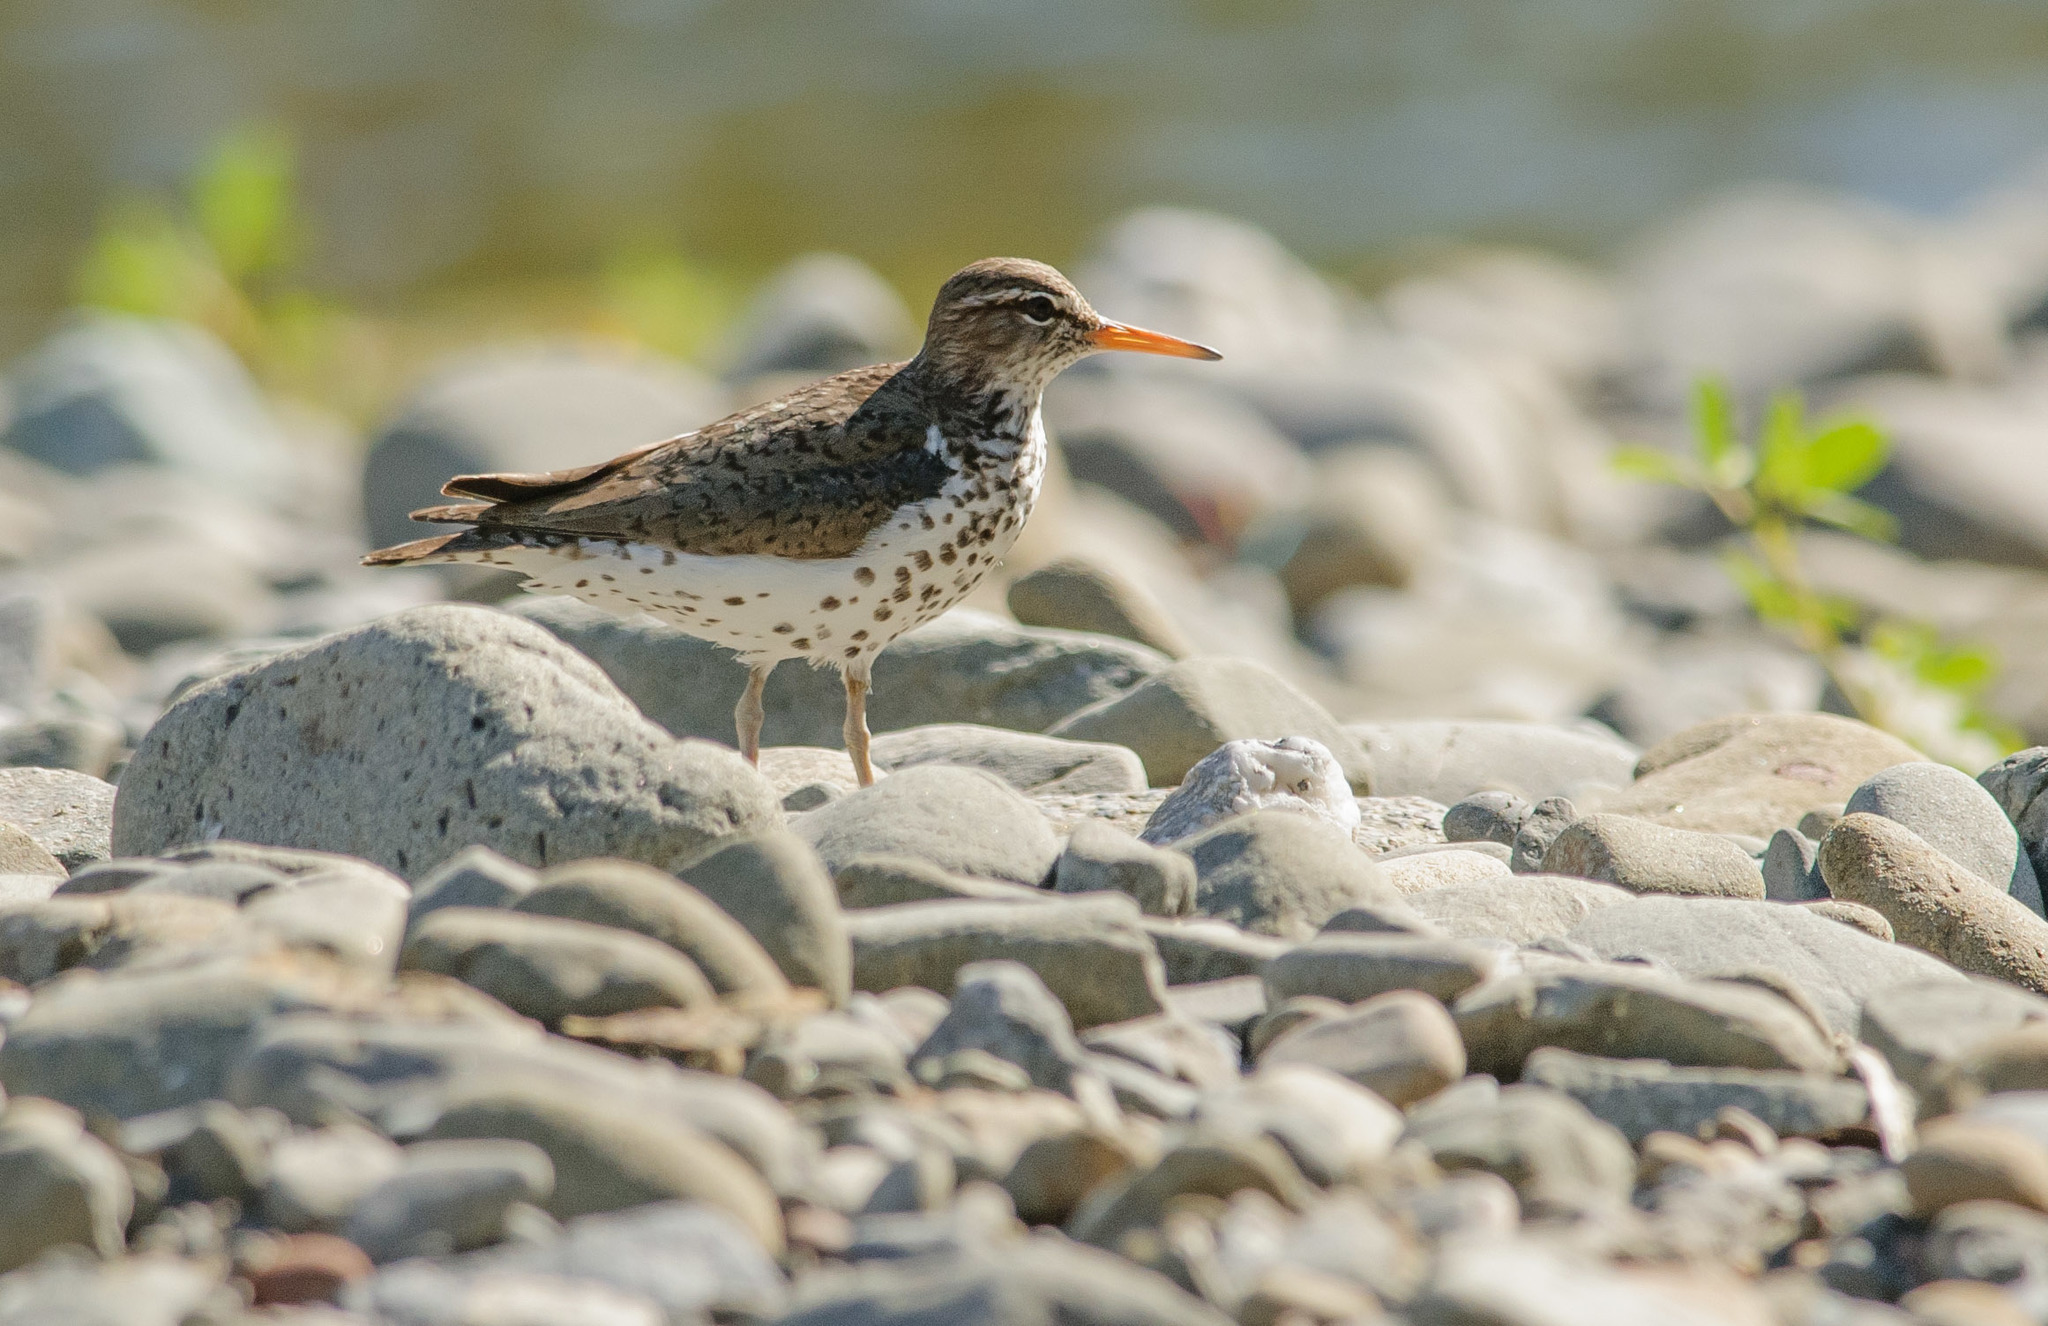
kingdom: Animalia
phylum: Chordata
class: Aves
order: Charadriiformes
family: Scolopacidae
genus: Actitis
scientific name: Actitis macularius
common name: Spotted sandpiper
